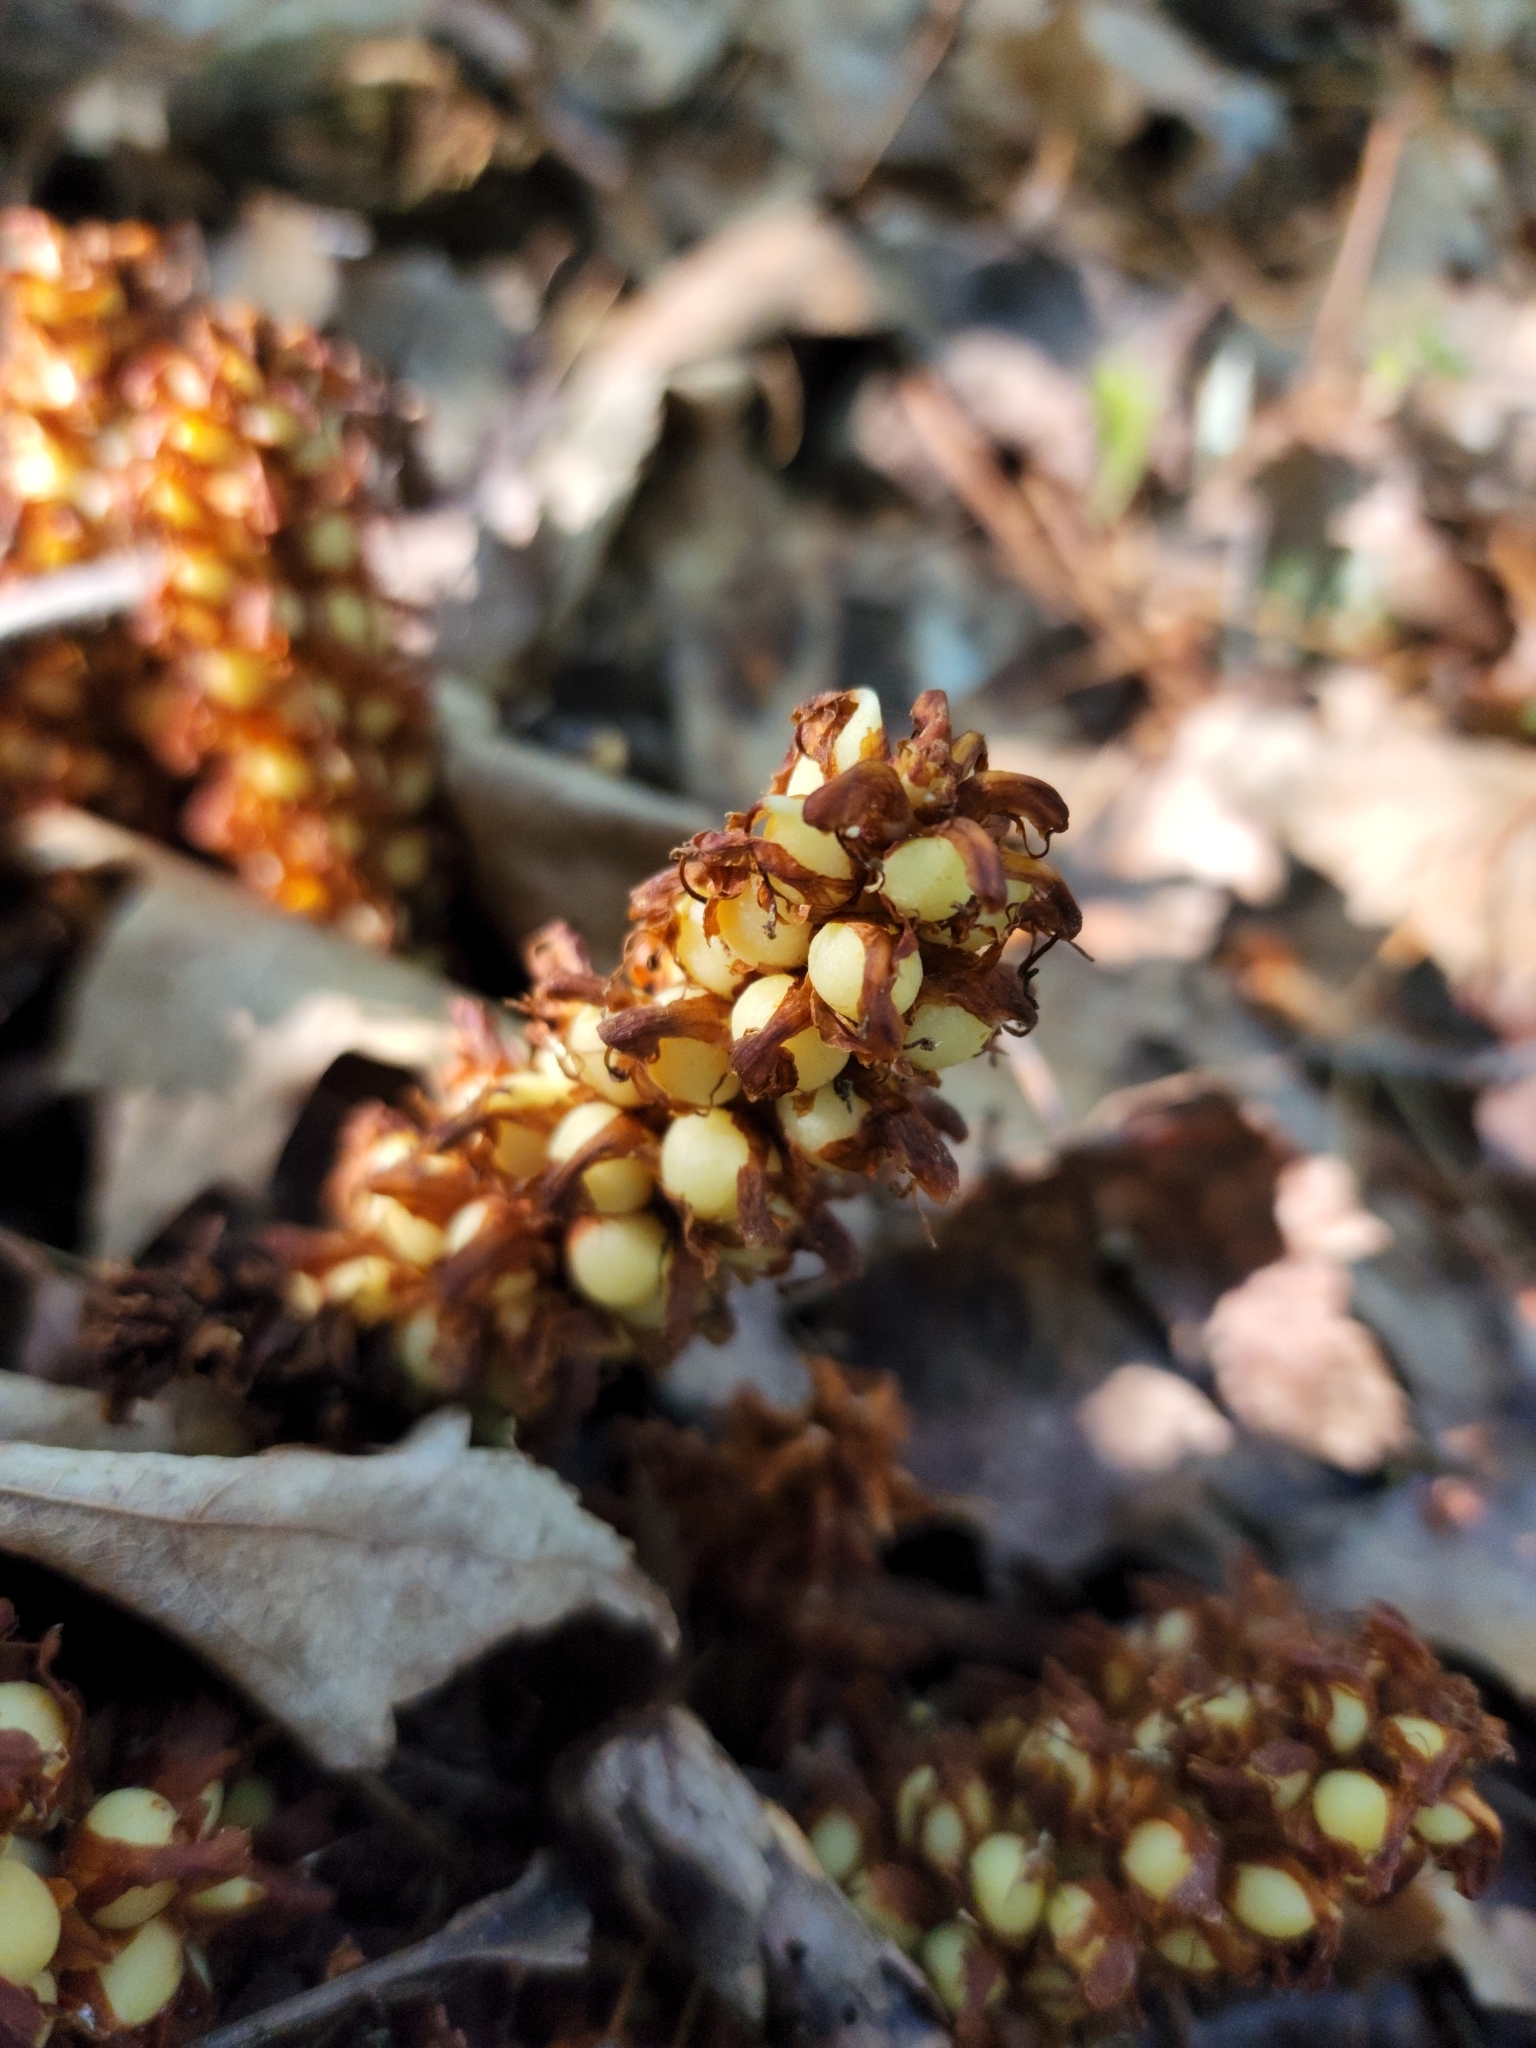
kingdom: Plantae
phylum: Tracheophyta
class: Magnoliopsida
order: Lamiales
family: Orobanchaceae
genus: Conopholis
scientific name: Conopholis americana
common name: American cancer-root
